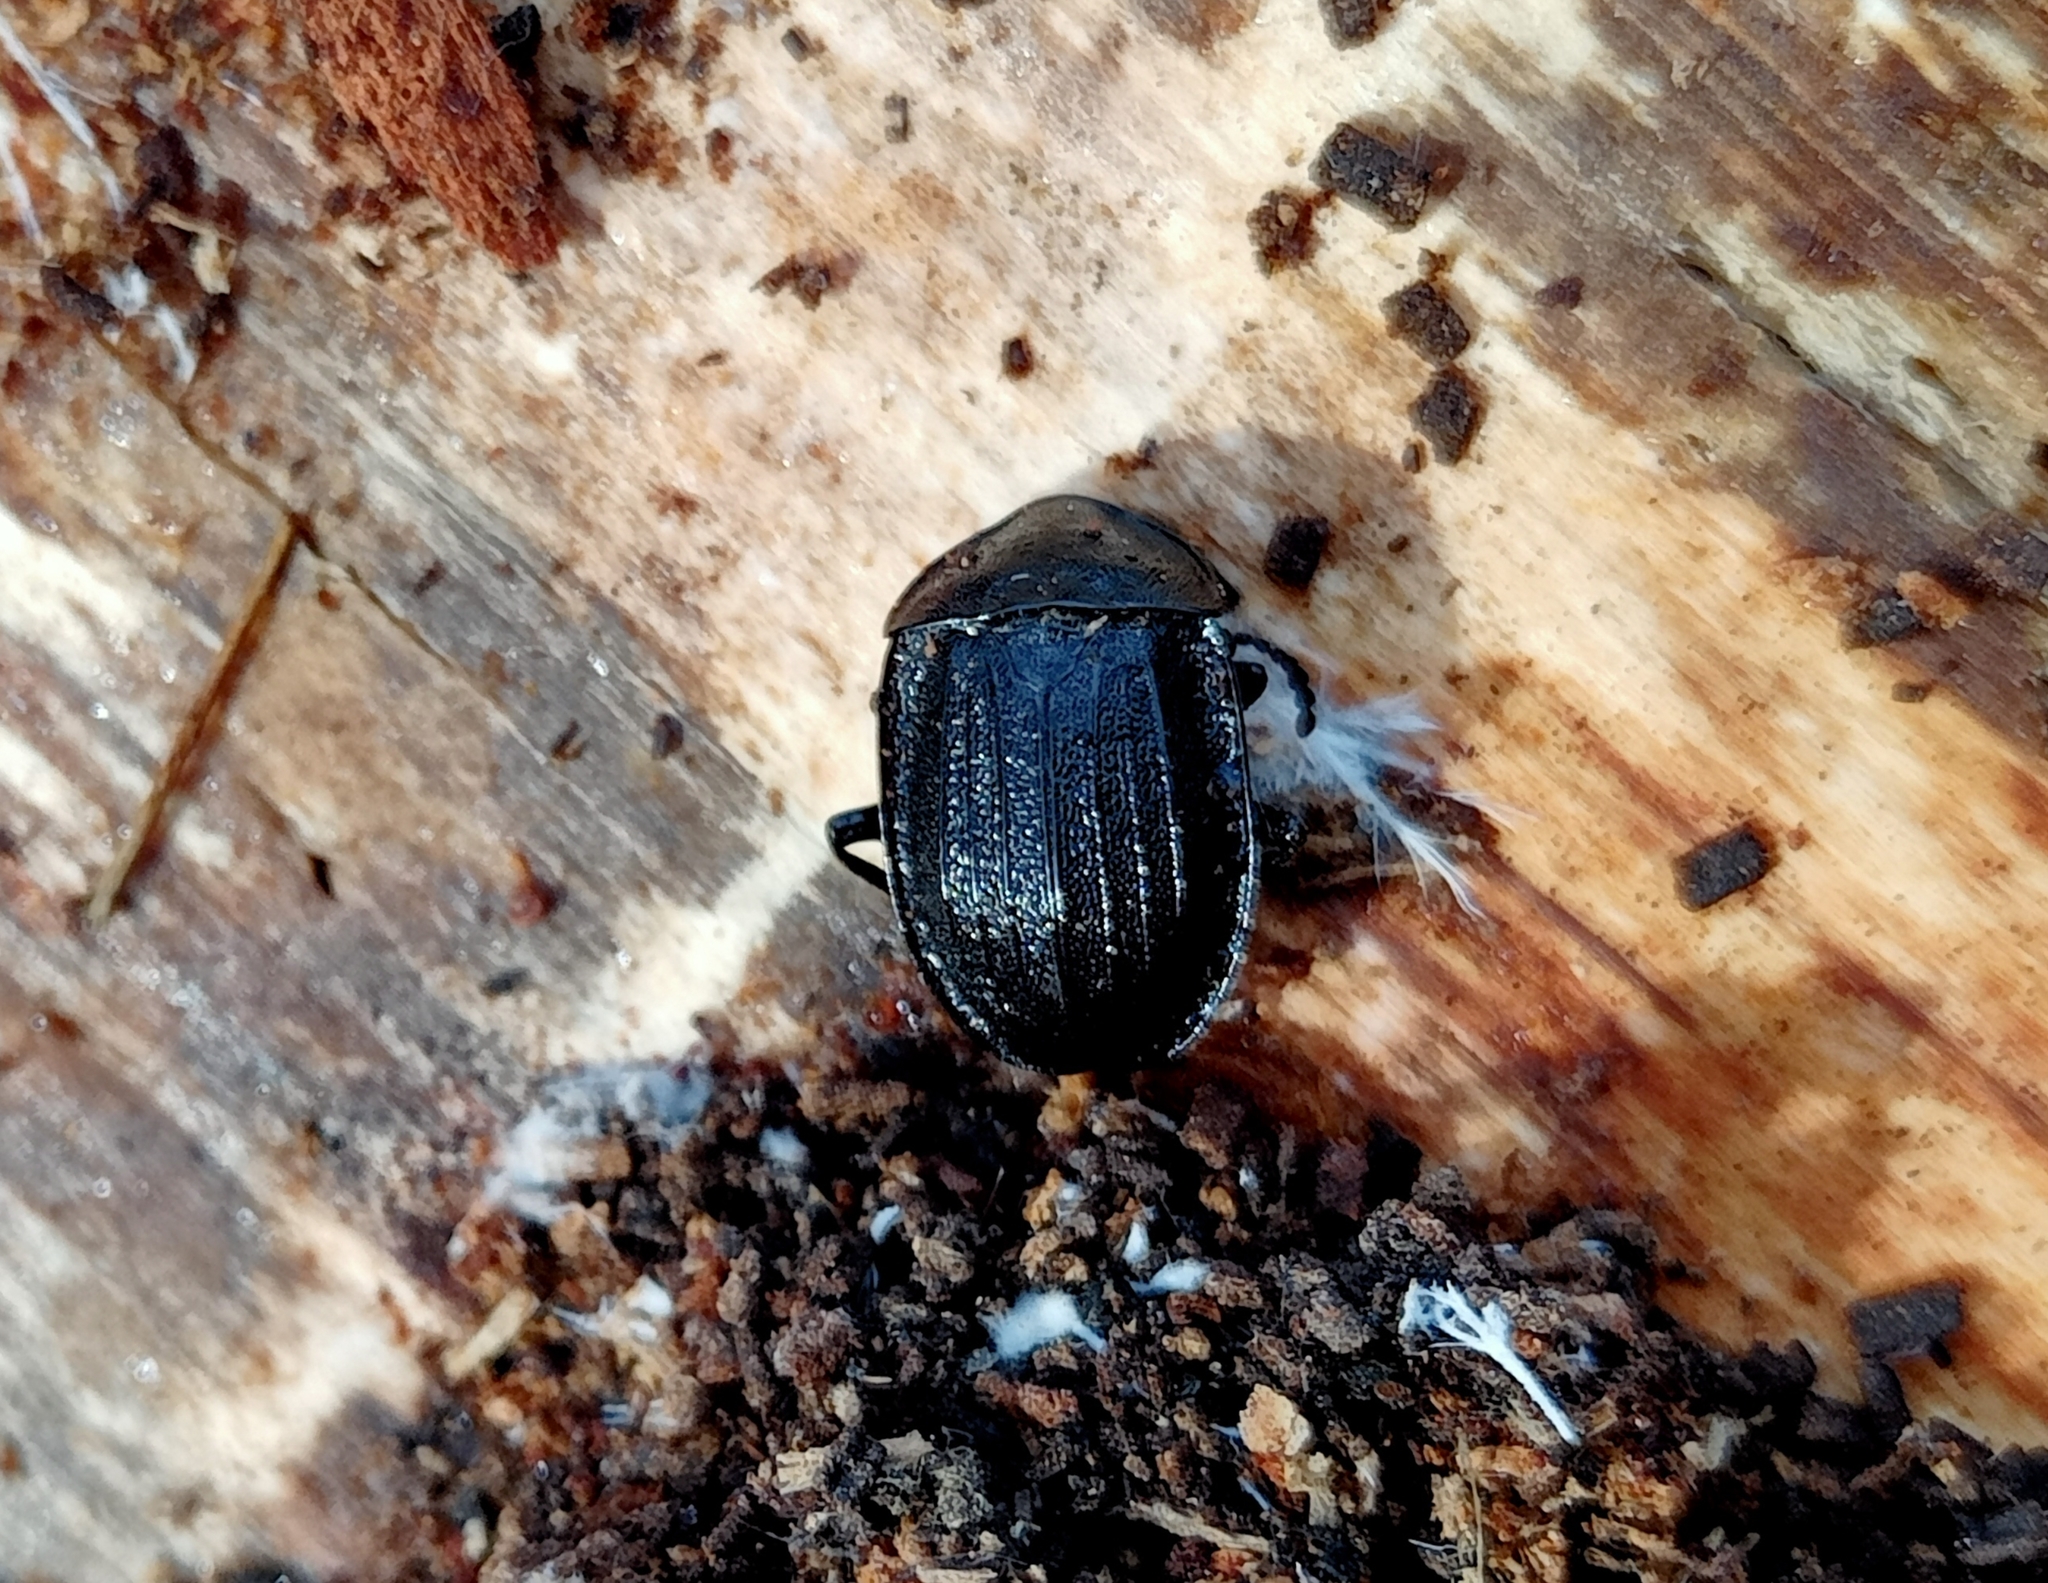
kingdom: Animalia
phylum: Arthropoda
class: Insecta
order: Coleoptera
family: Staphylinidae
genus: Silpha
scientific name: Silpha atrata
